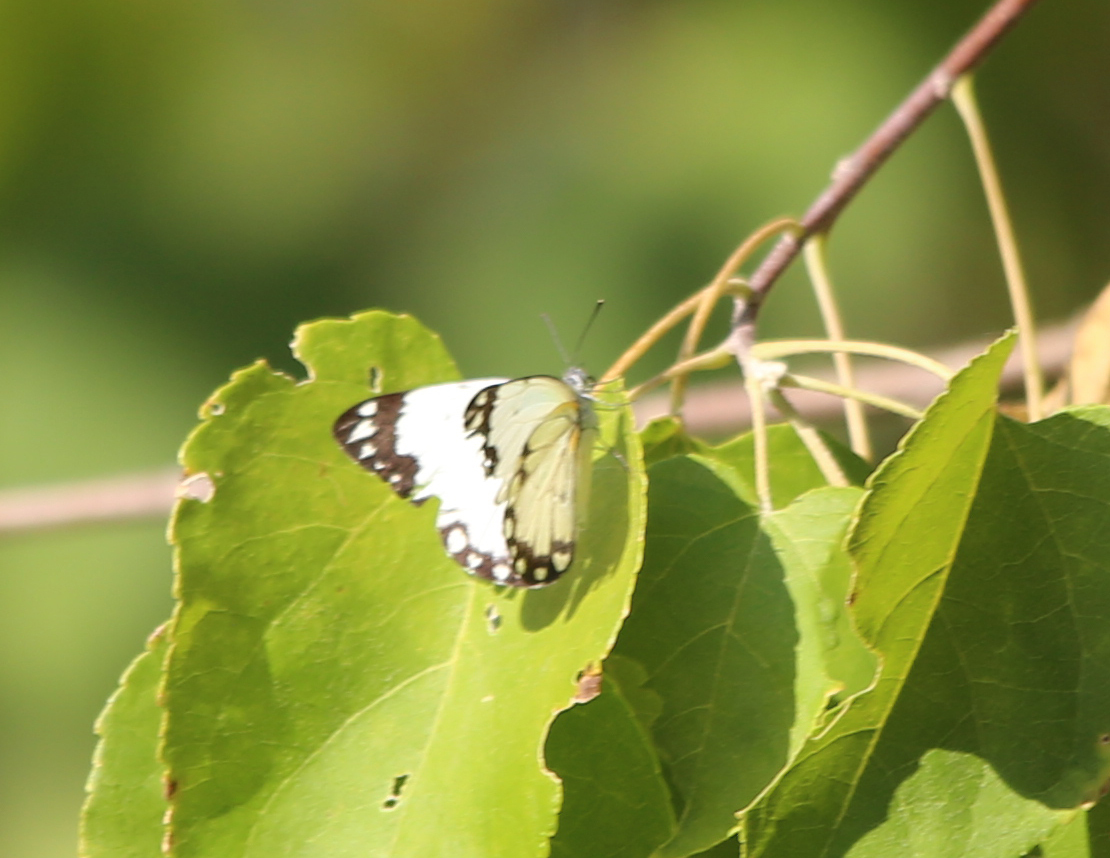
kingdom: Animalia
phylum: Arthropoda
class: Insecta
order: Lepidoptera
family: Pieridae
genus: Belenois
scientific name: Belenois creona
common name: African caper white
